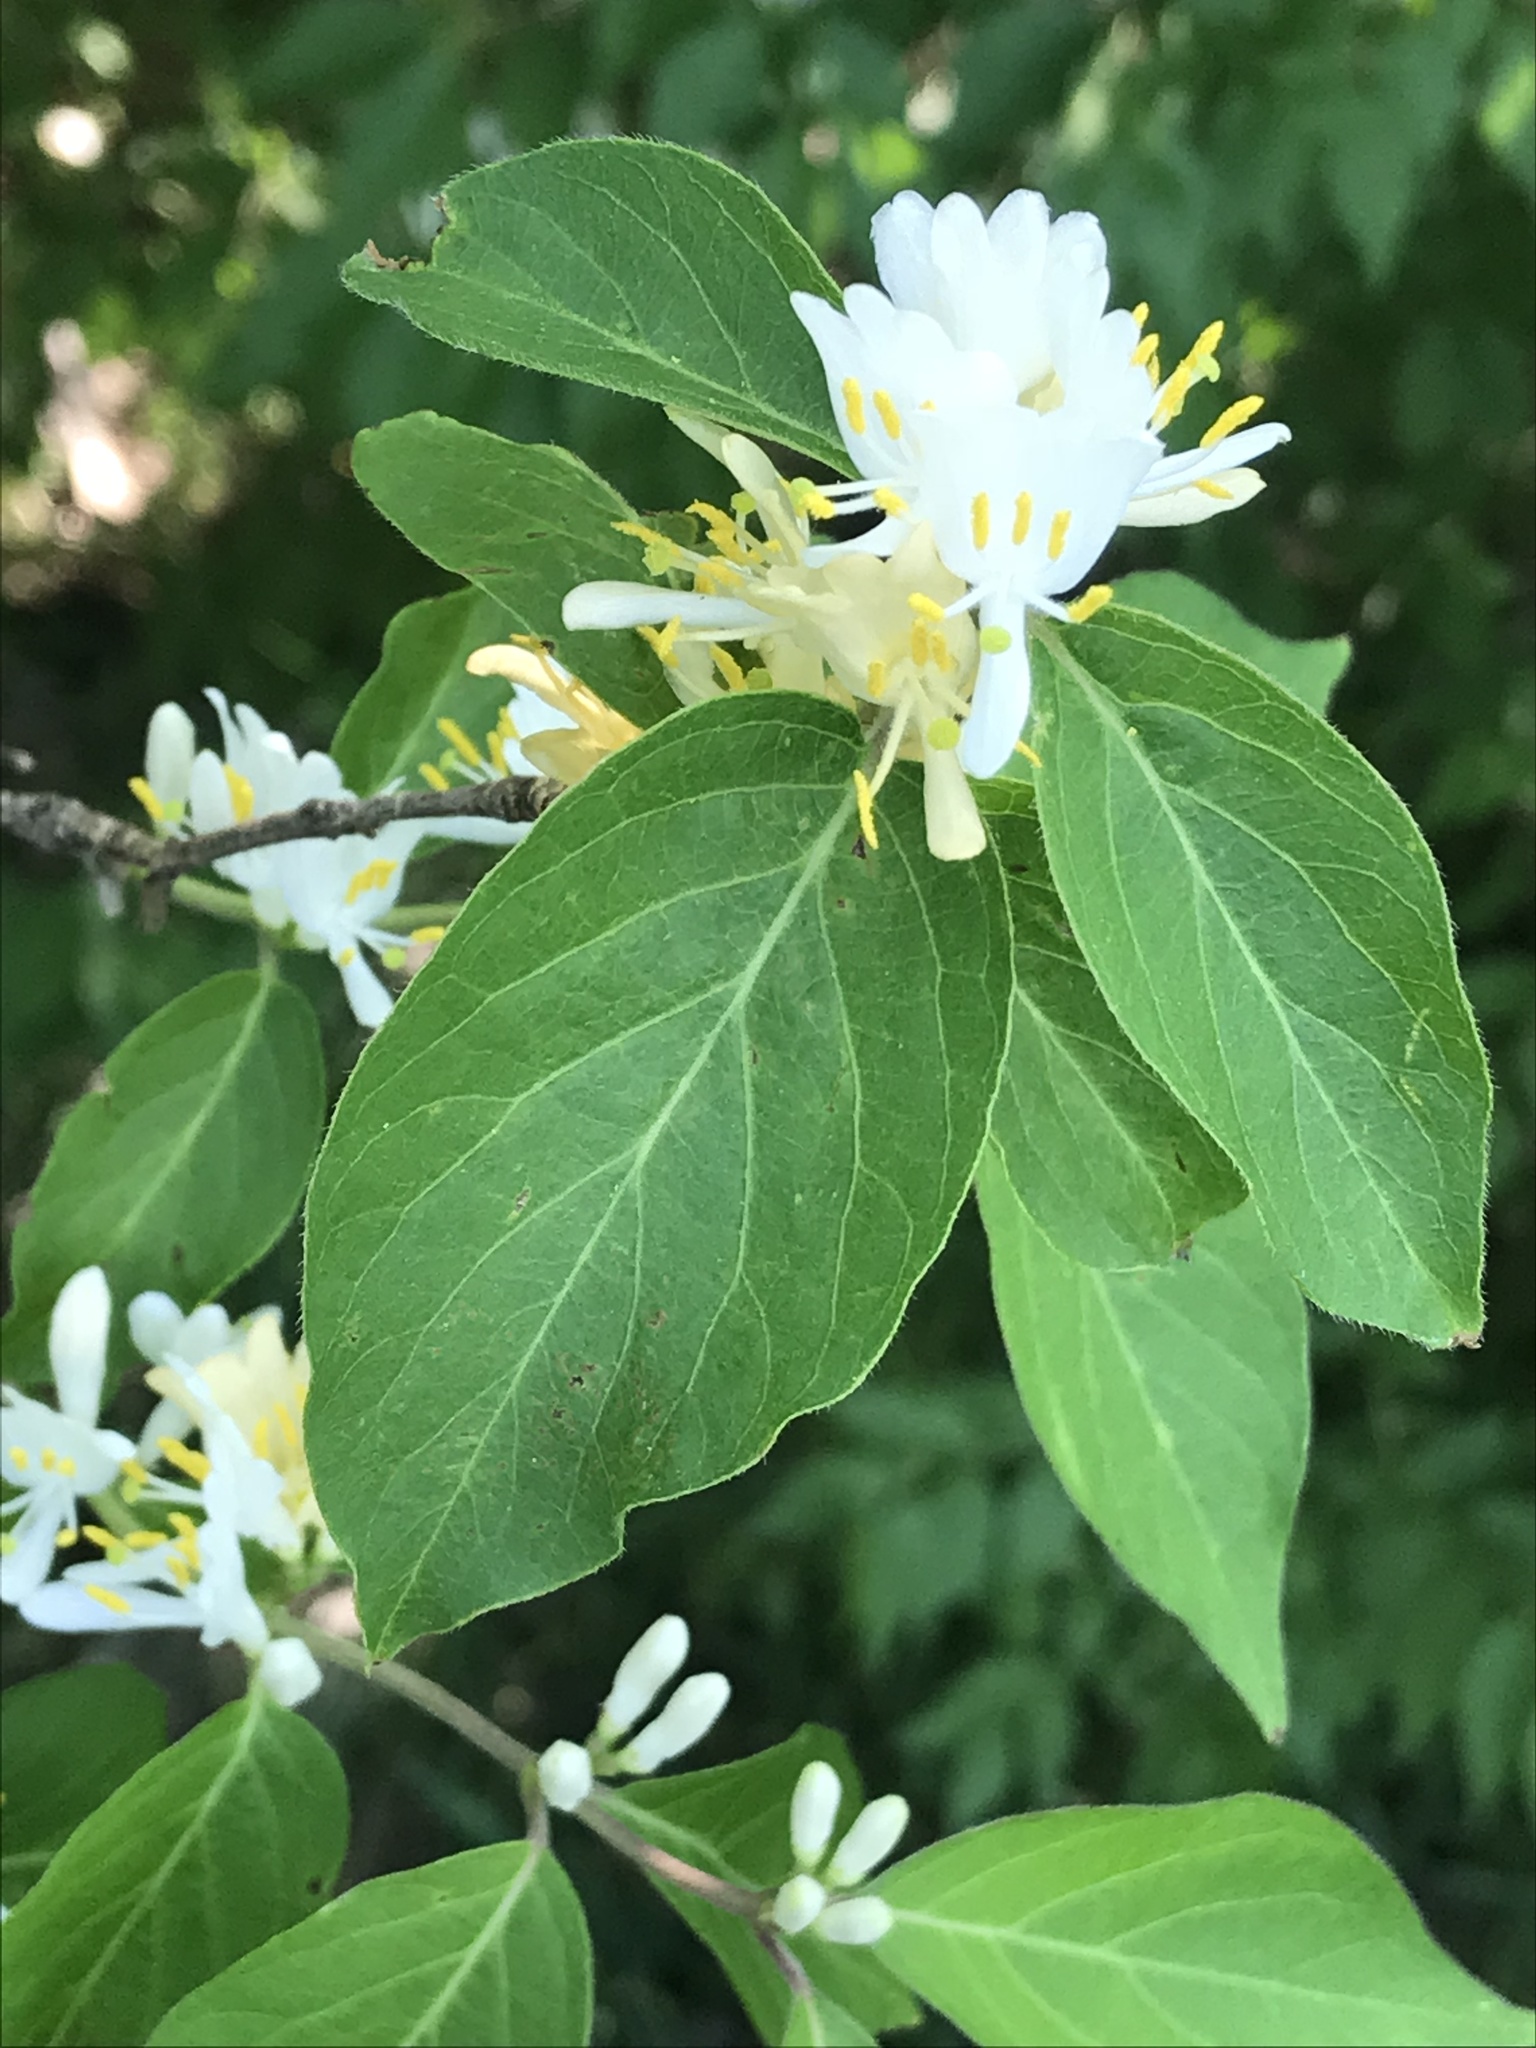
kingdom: Plantae
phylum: Tracheophyta
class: Magnoliopsida
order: Dipsacales
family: Caprifoliaceae
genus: Lonicera
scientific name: Lonicera maackii
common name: Amur honeysuckle
